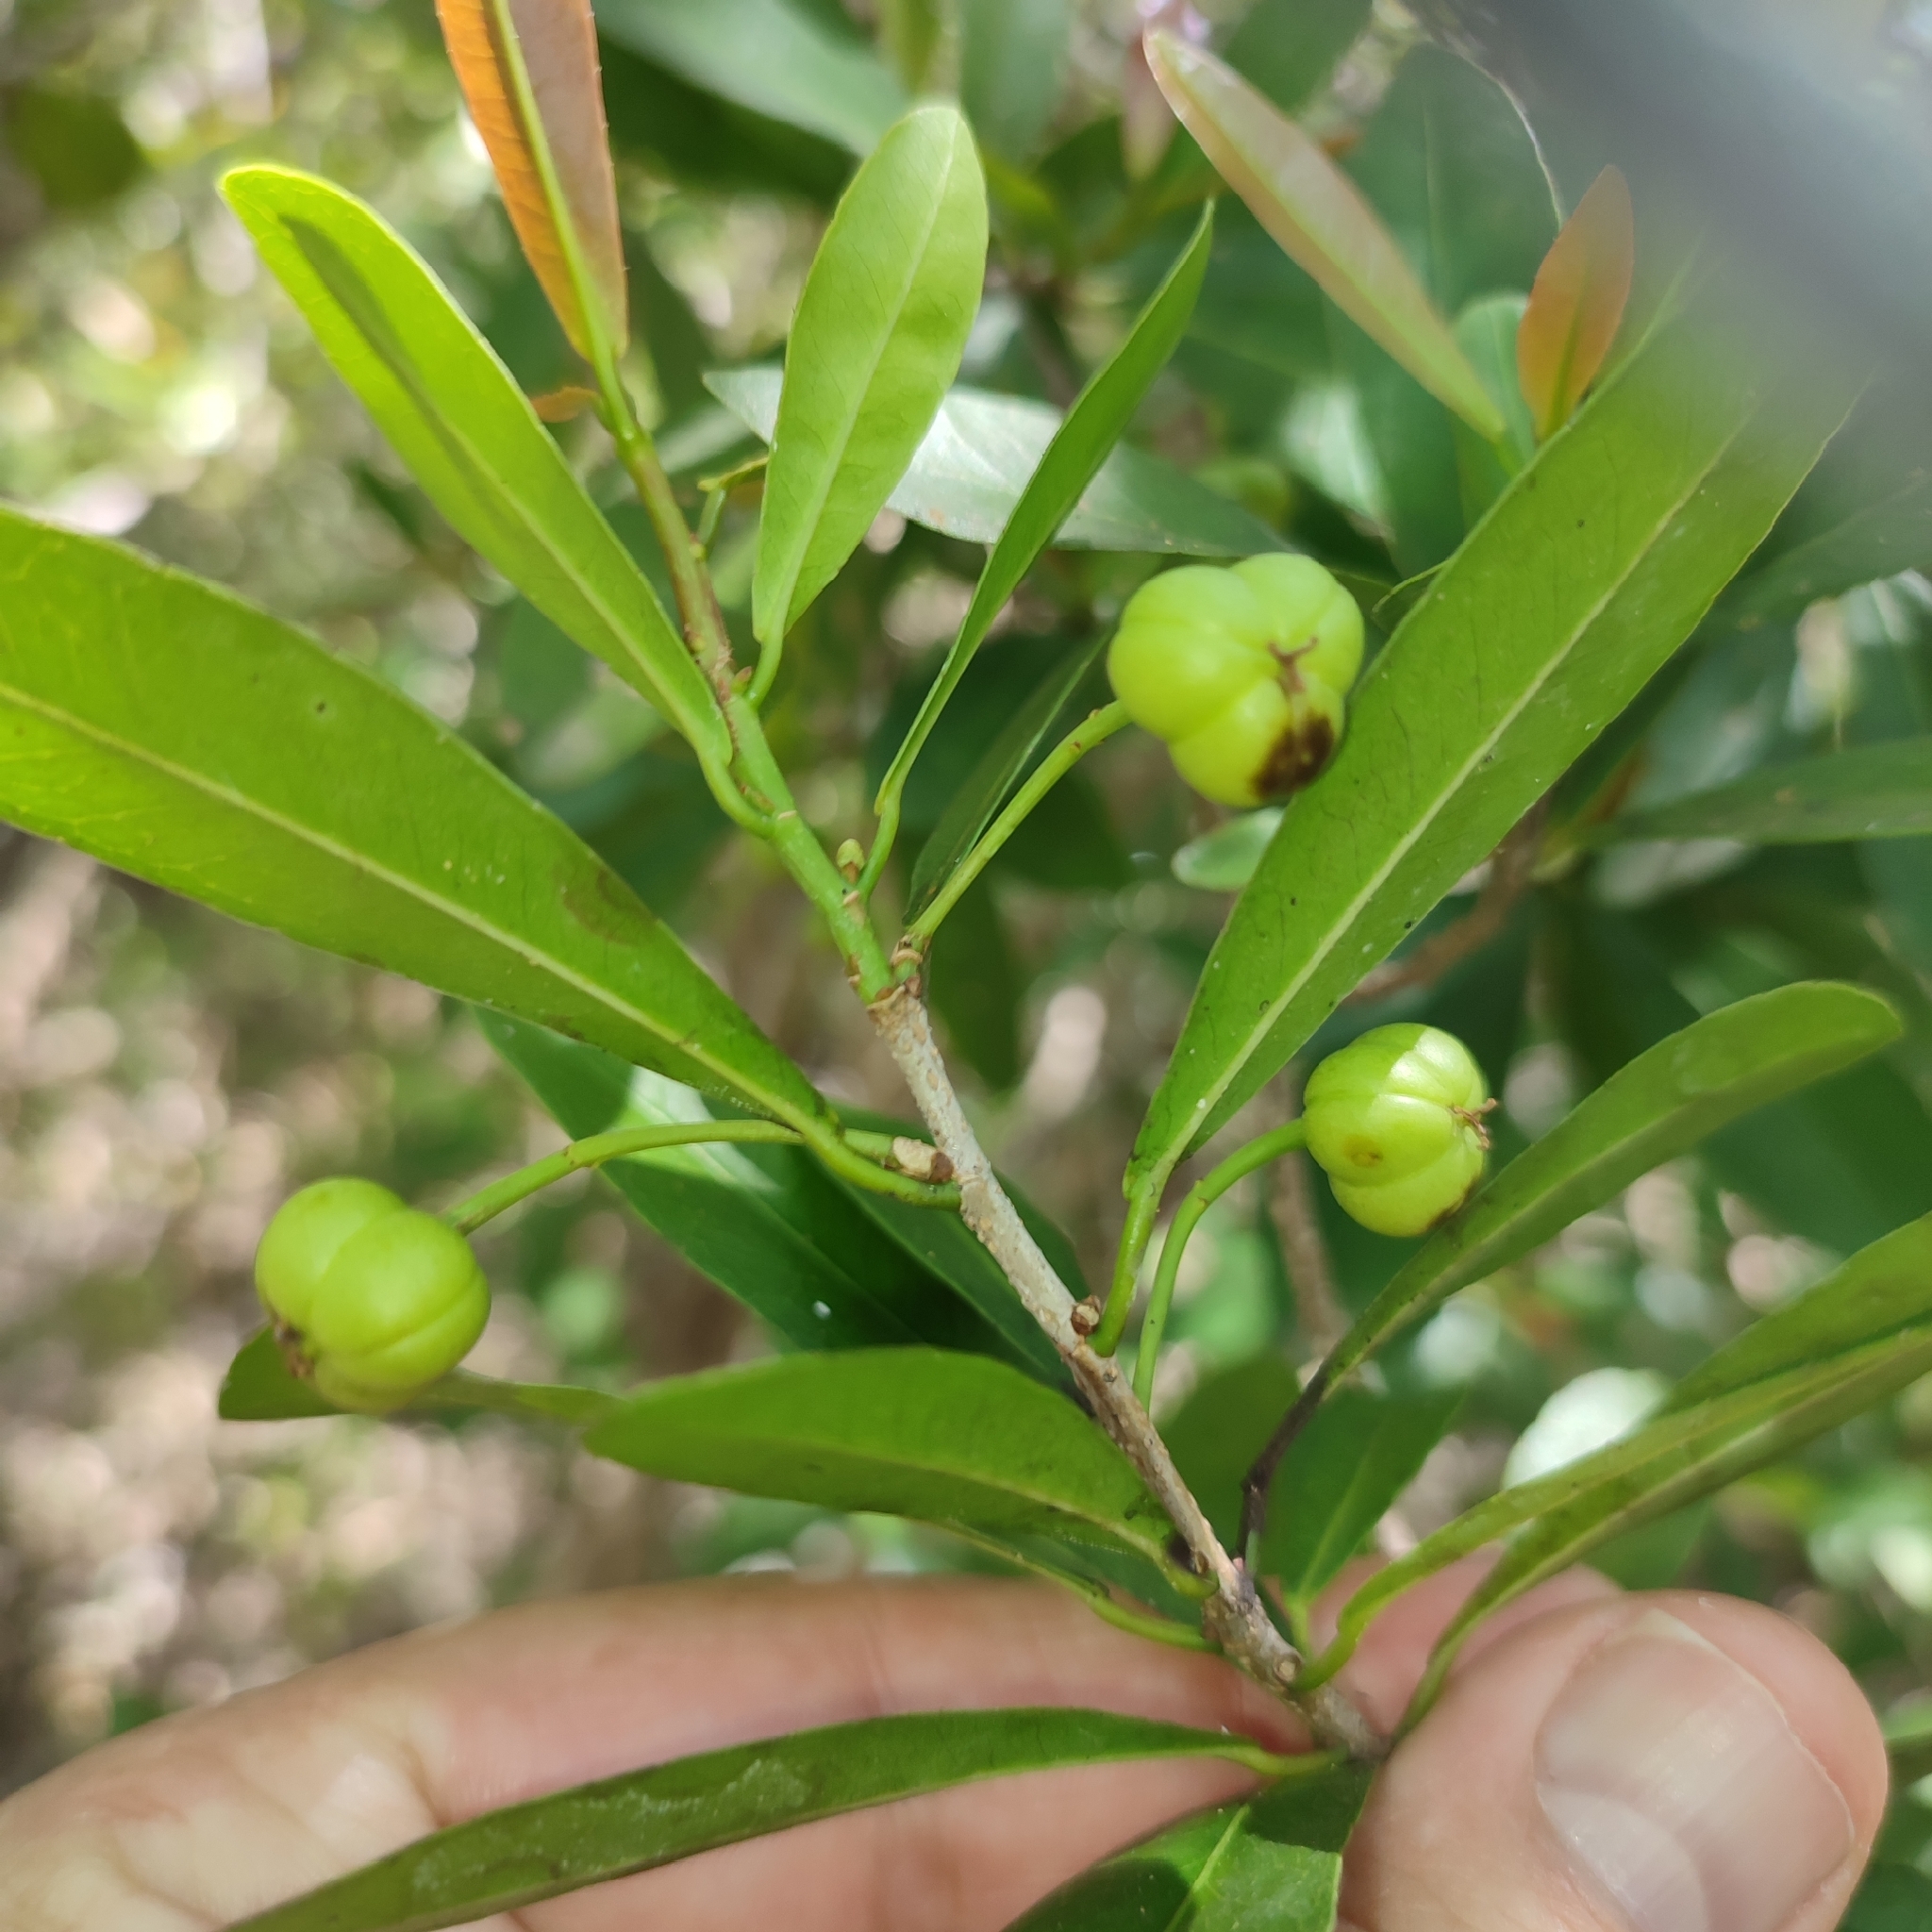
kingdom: Plantae
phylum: Tracheophyta
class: Magnoliopsida
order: Malpighiales
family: Euphorbiaceae
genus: Gymnanthes
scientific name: Gymnanthes lucida
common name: Oysterwood
